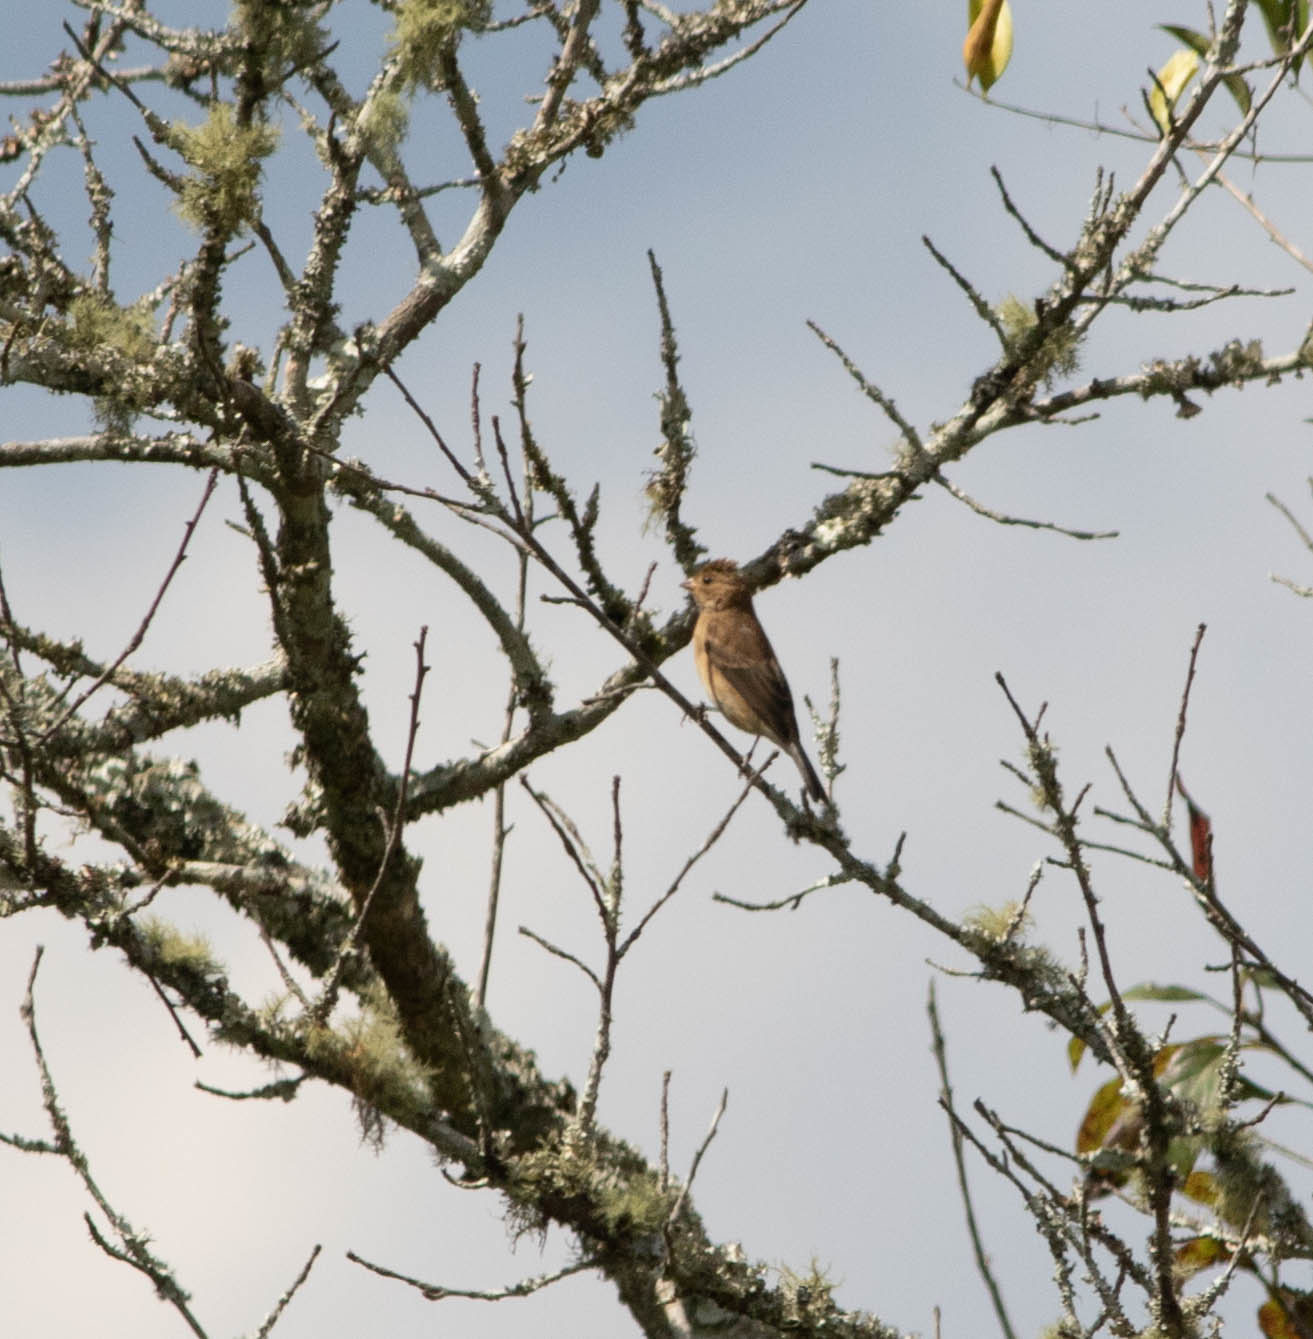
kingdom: Animalia
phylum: Chordata
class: Aves
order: Passeriformes
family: Cardinalidae
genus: Passerina
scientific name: Passerina cyanea
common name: Indigo bunting
